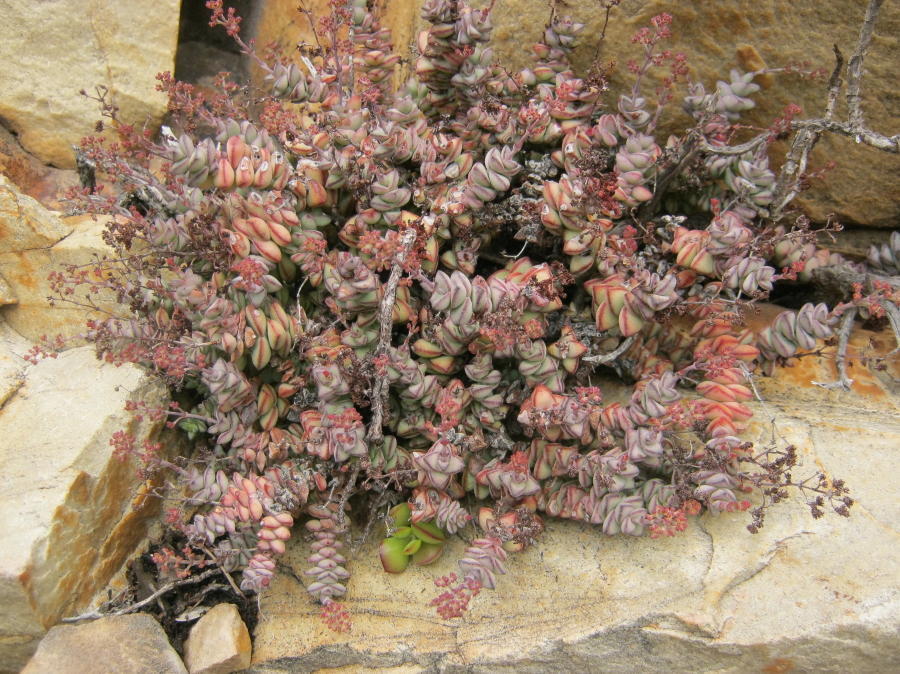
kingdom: Plantae
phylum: Tracheophyta
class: Magnoliopsida
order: Saxifragales
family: Crassulaceae
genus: Crassula
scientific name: Crassula perforata
